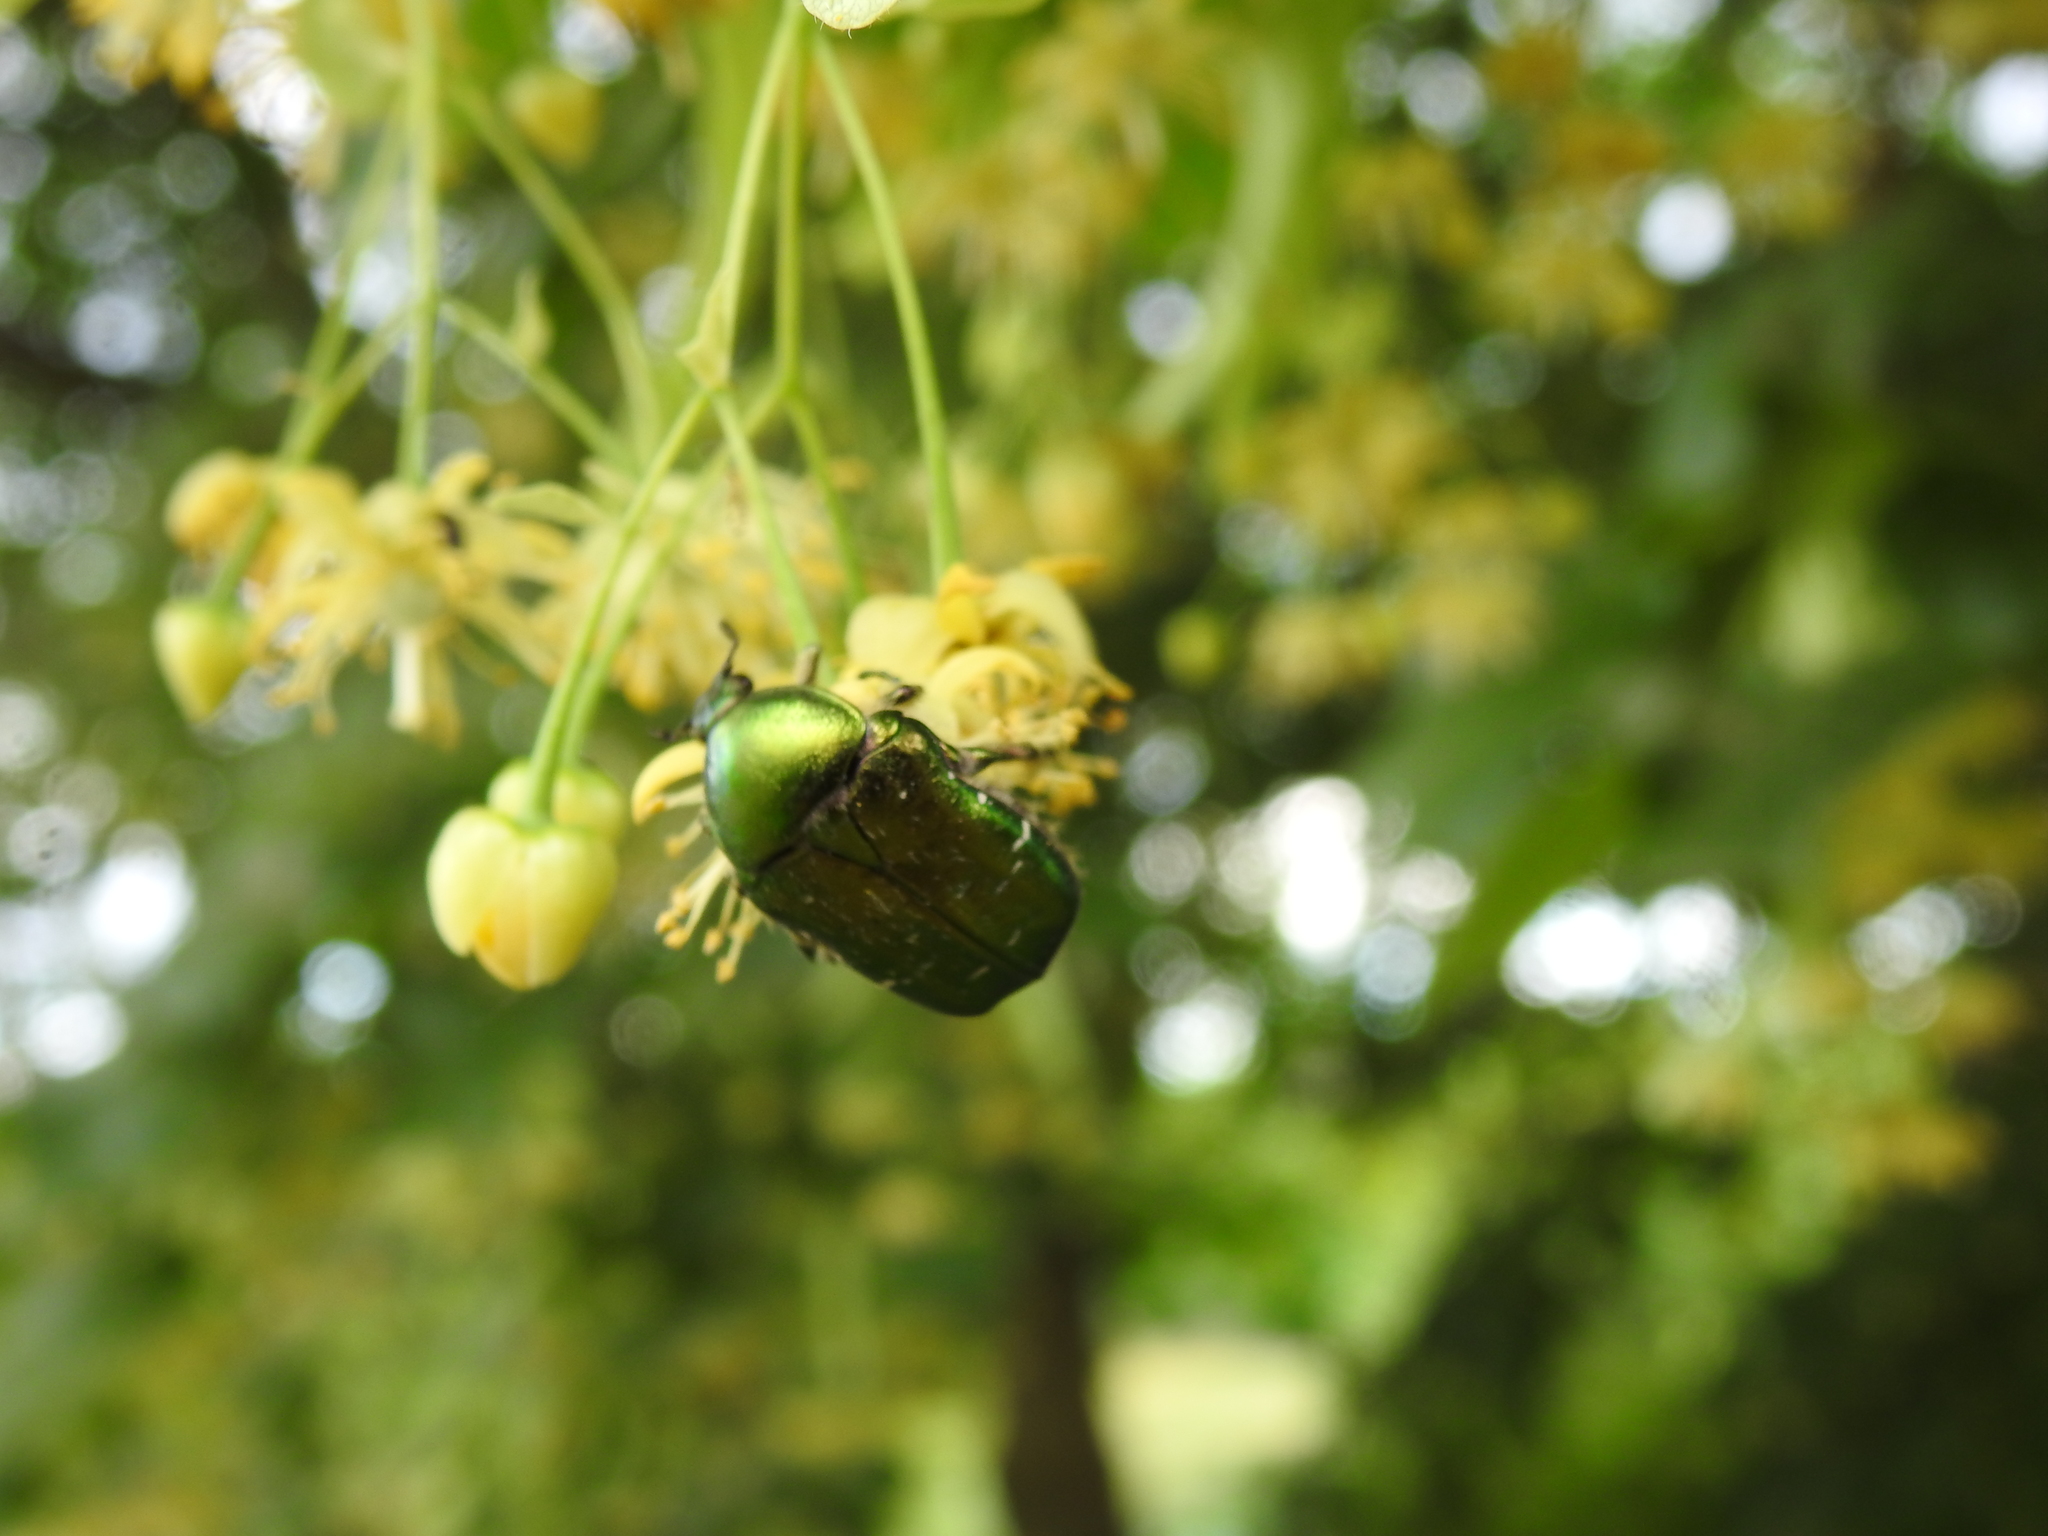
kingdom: Animalia
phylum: Arthropoda
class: Insecta
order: Coleoptera
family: Scarabaeidae
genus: Cetonia
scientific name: Cetonia aurata
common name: Rose chafer
